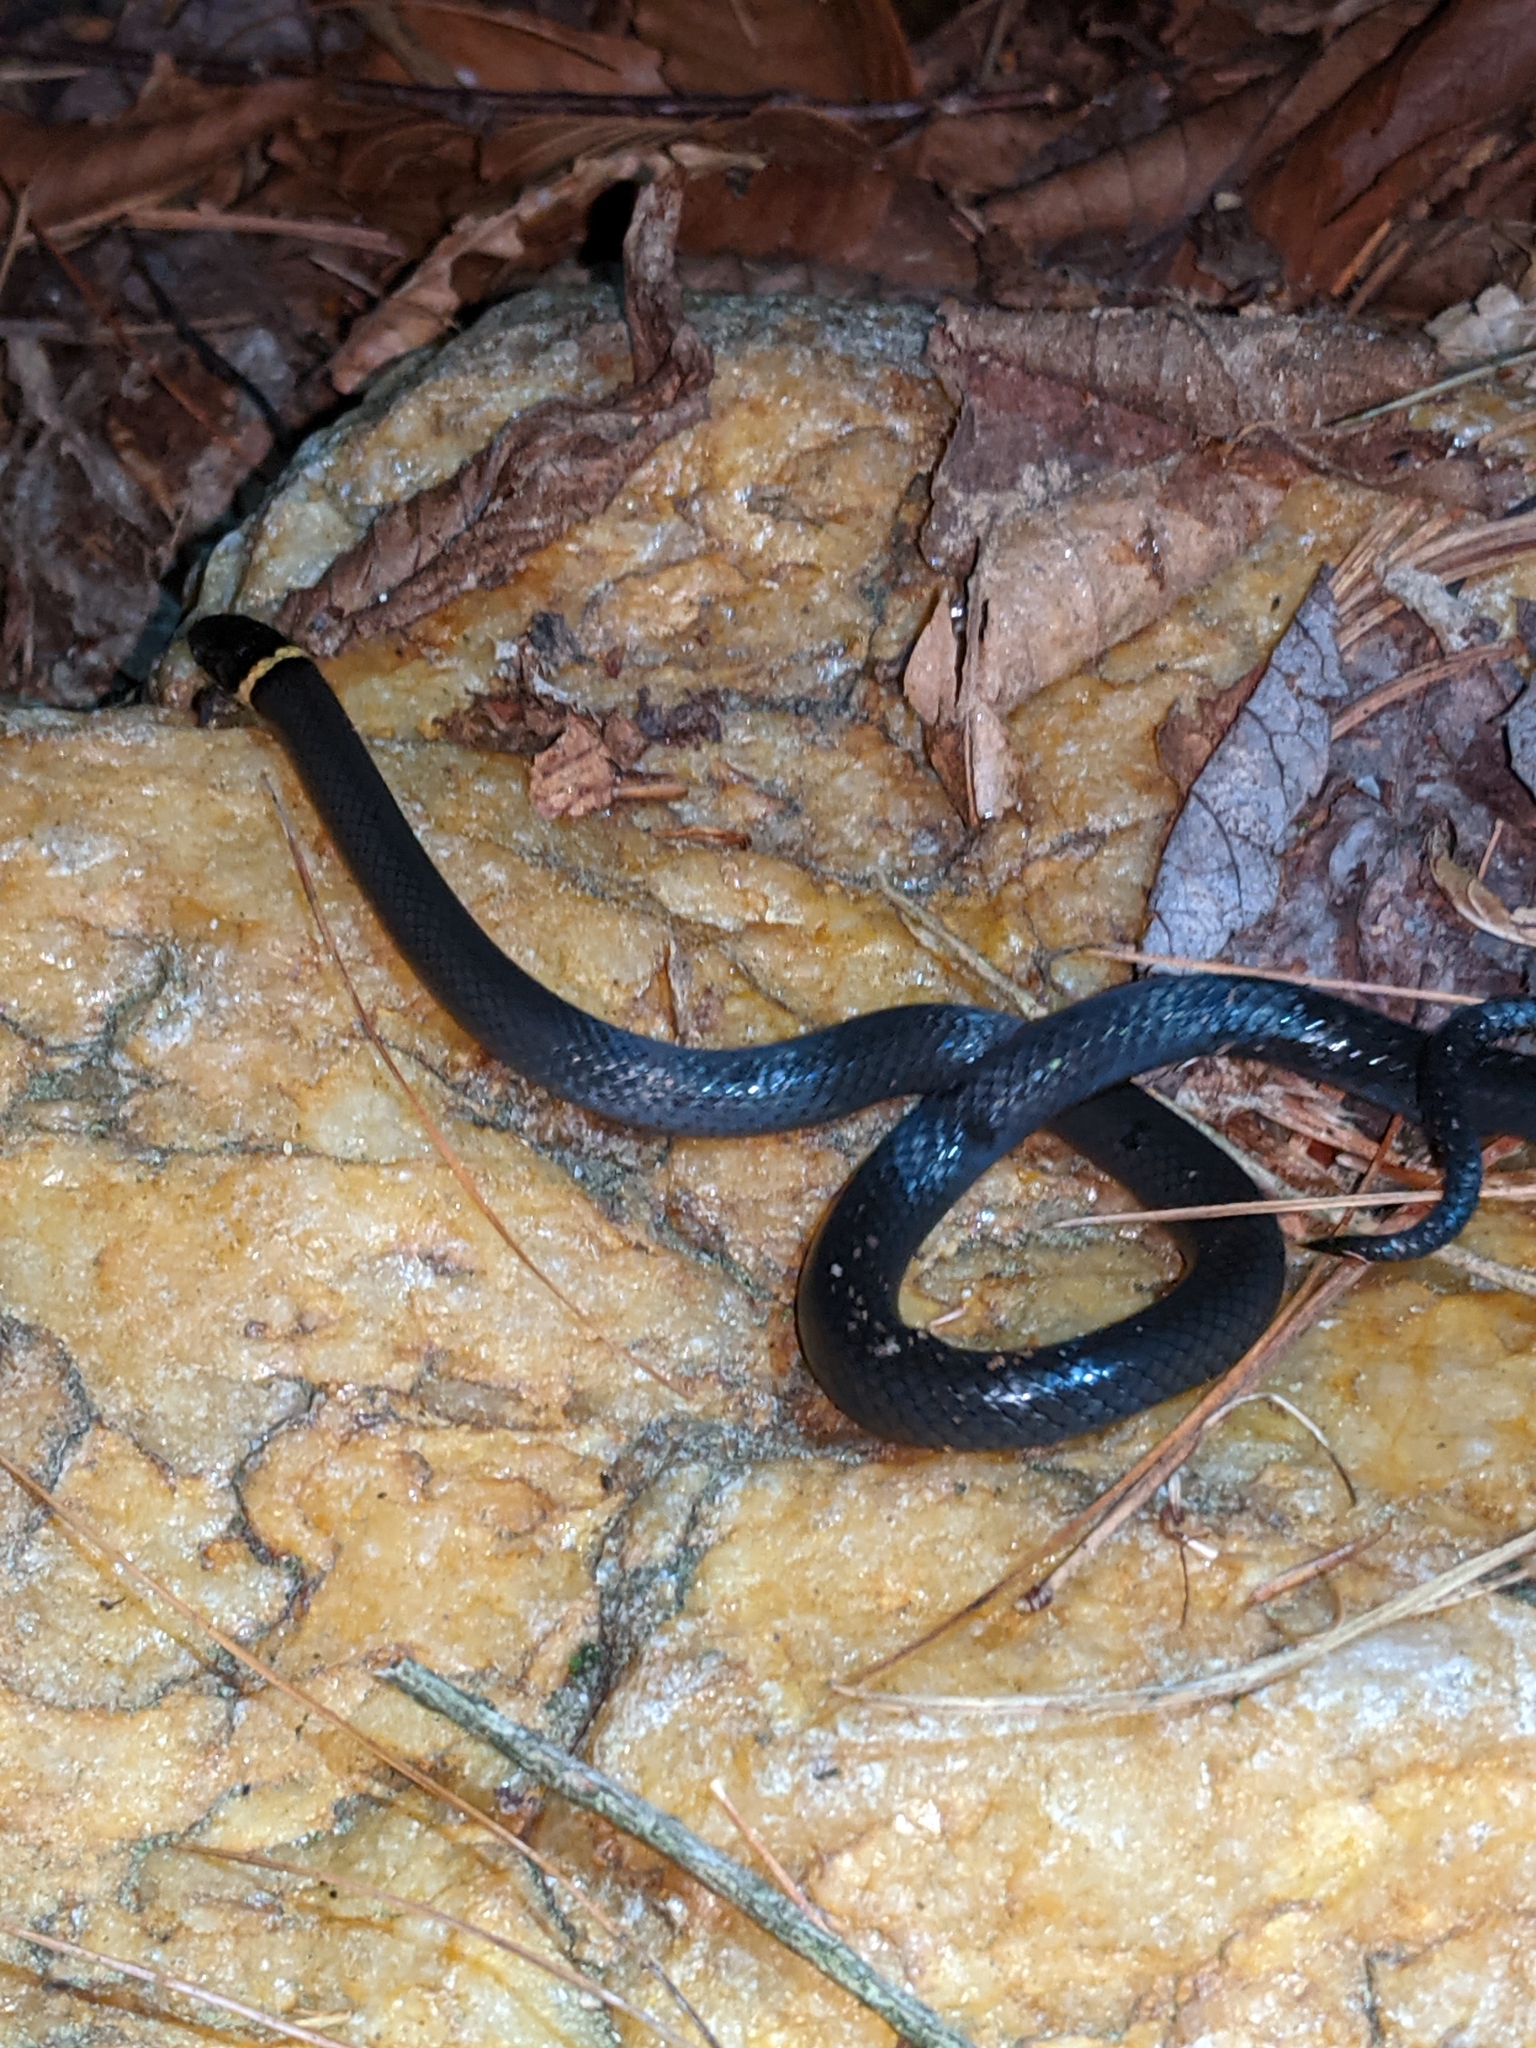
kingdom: Animalia
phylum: Chordata
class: Squamata
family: Colubridae
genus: Diadophis
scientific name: Diadophis punctatus
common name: Ringneck snake
